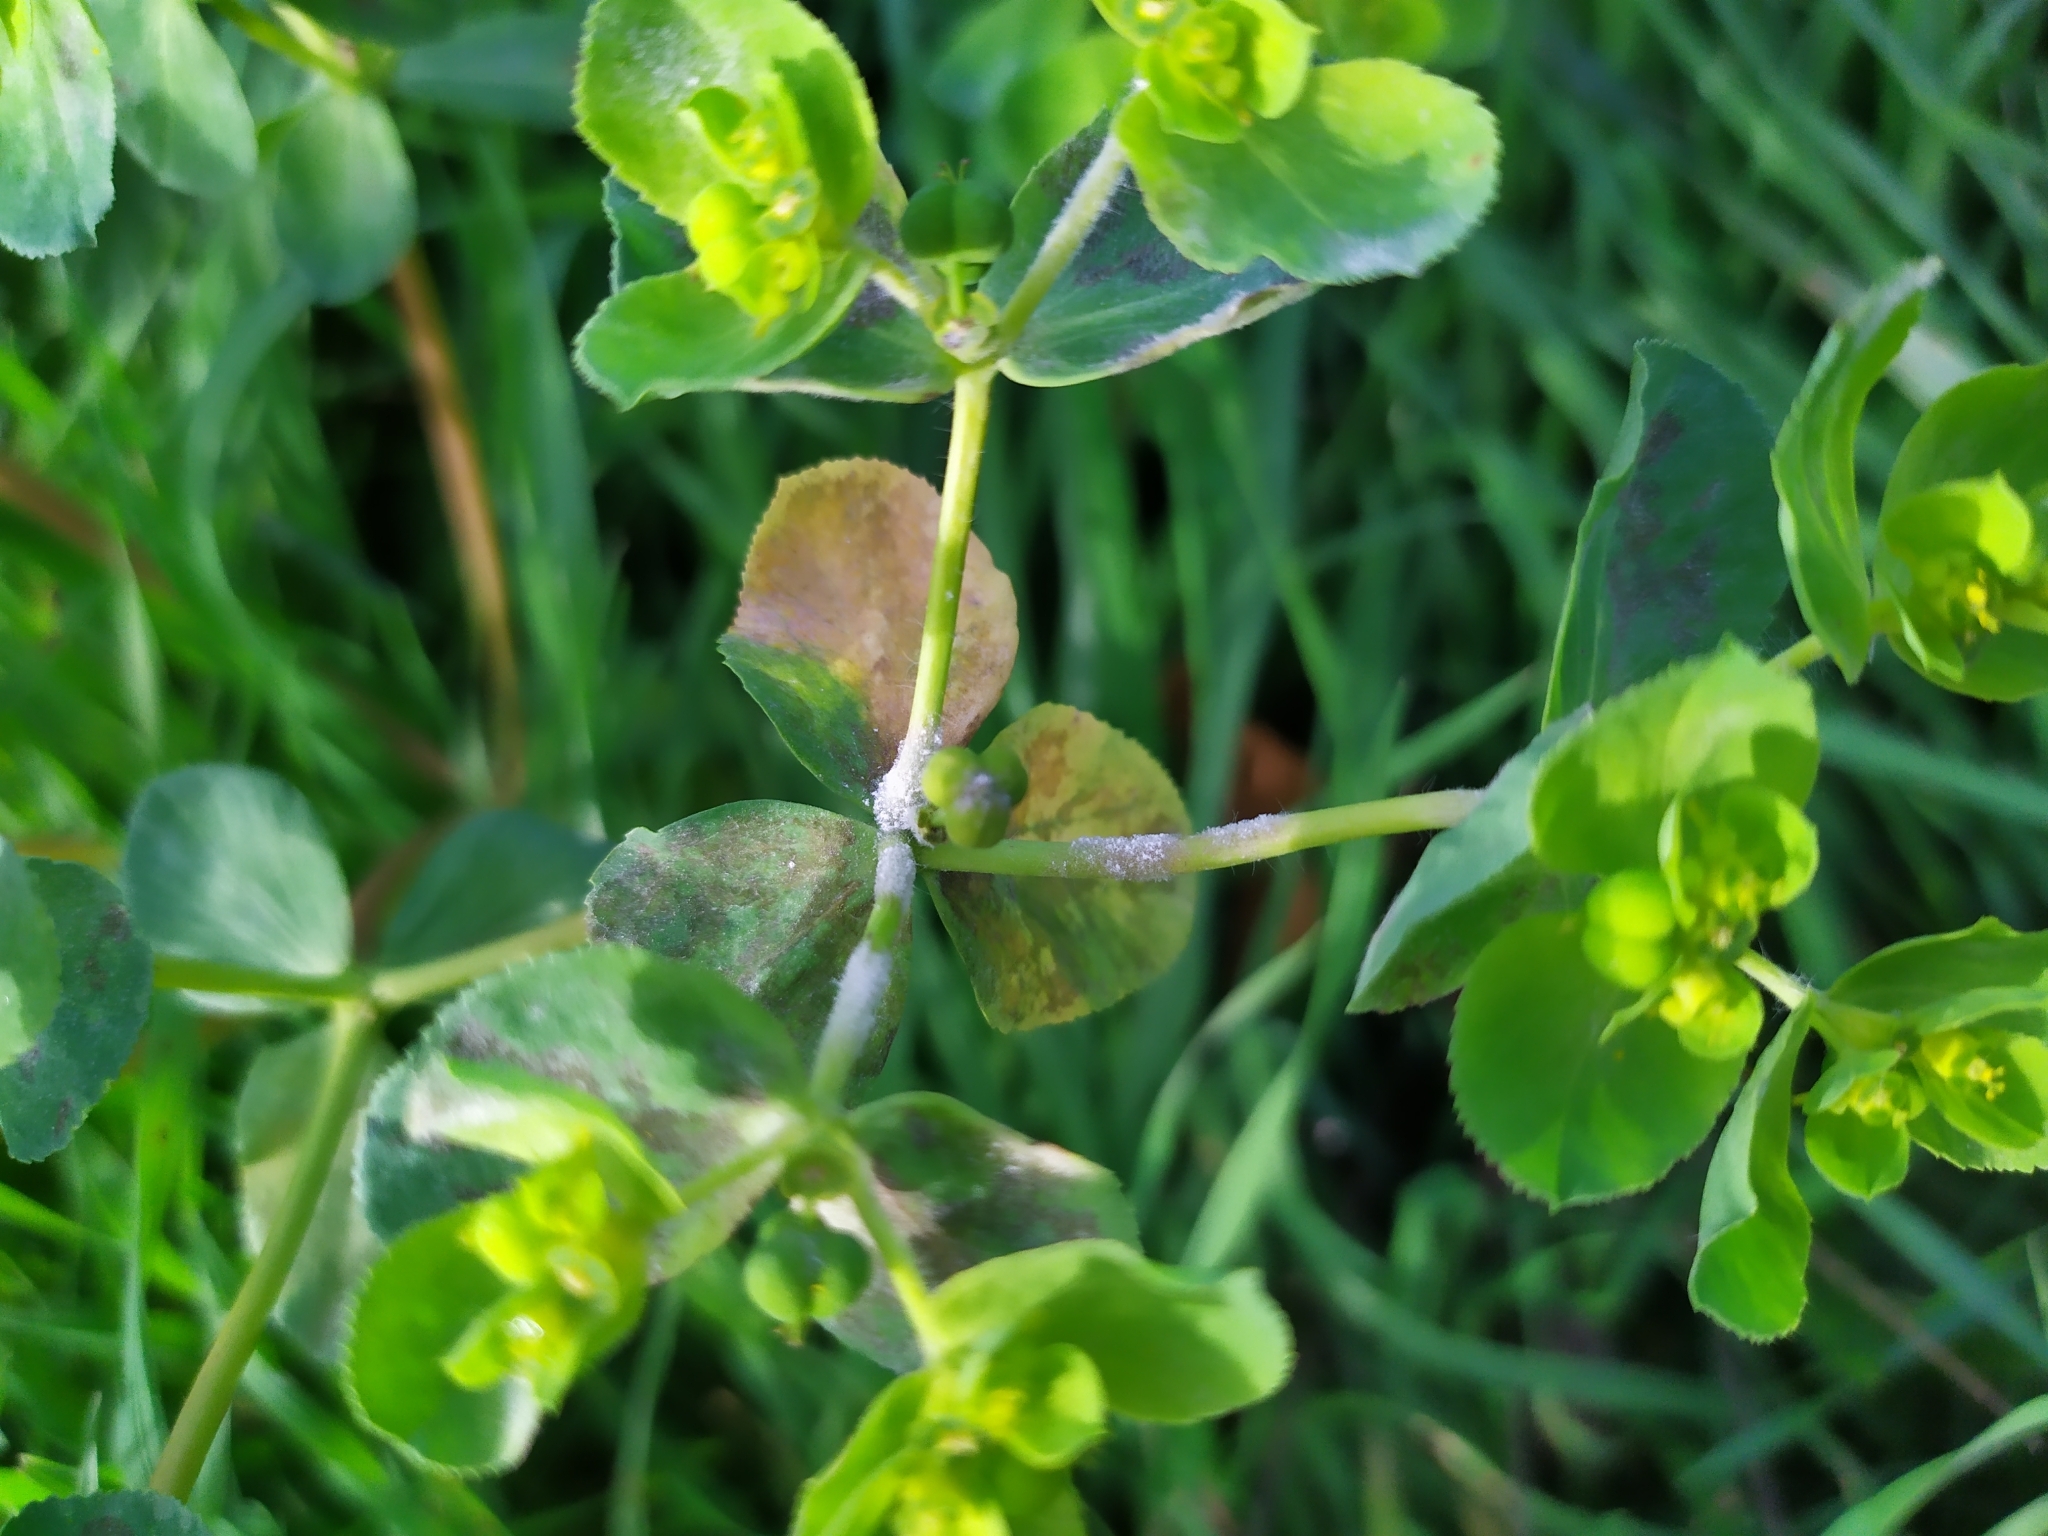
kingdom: Plantae
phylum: Tracheophyta
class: Magnoliopsida
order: Malpighiales
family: Euphorbiaceae
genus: Euphorbia
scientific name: Euphorbia helioscopia
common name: Sun spurge
